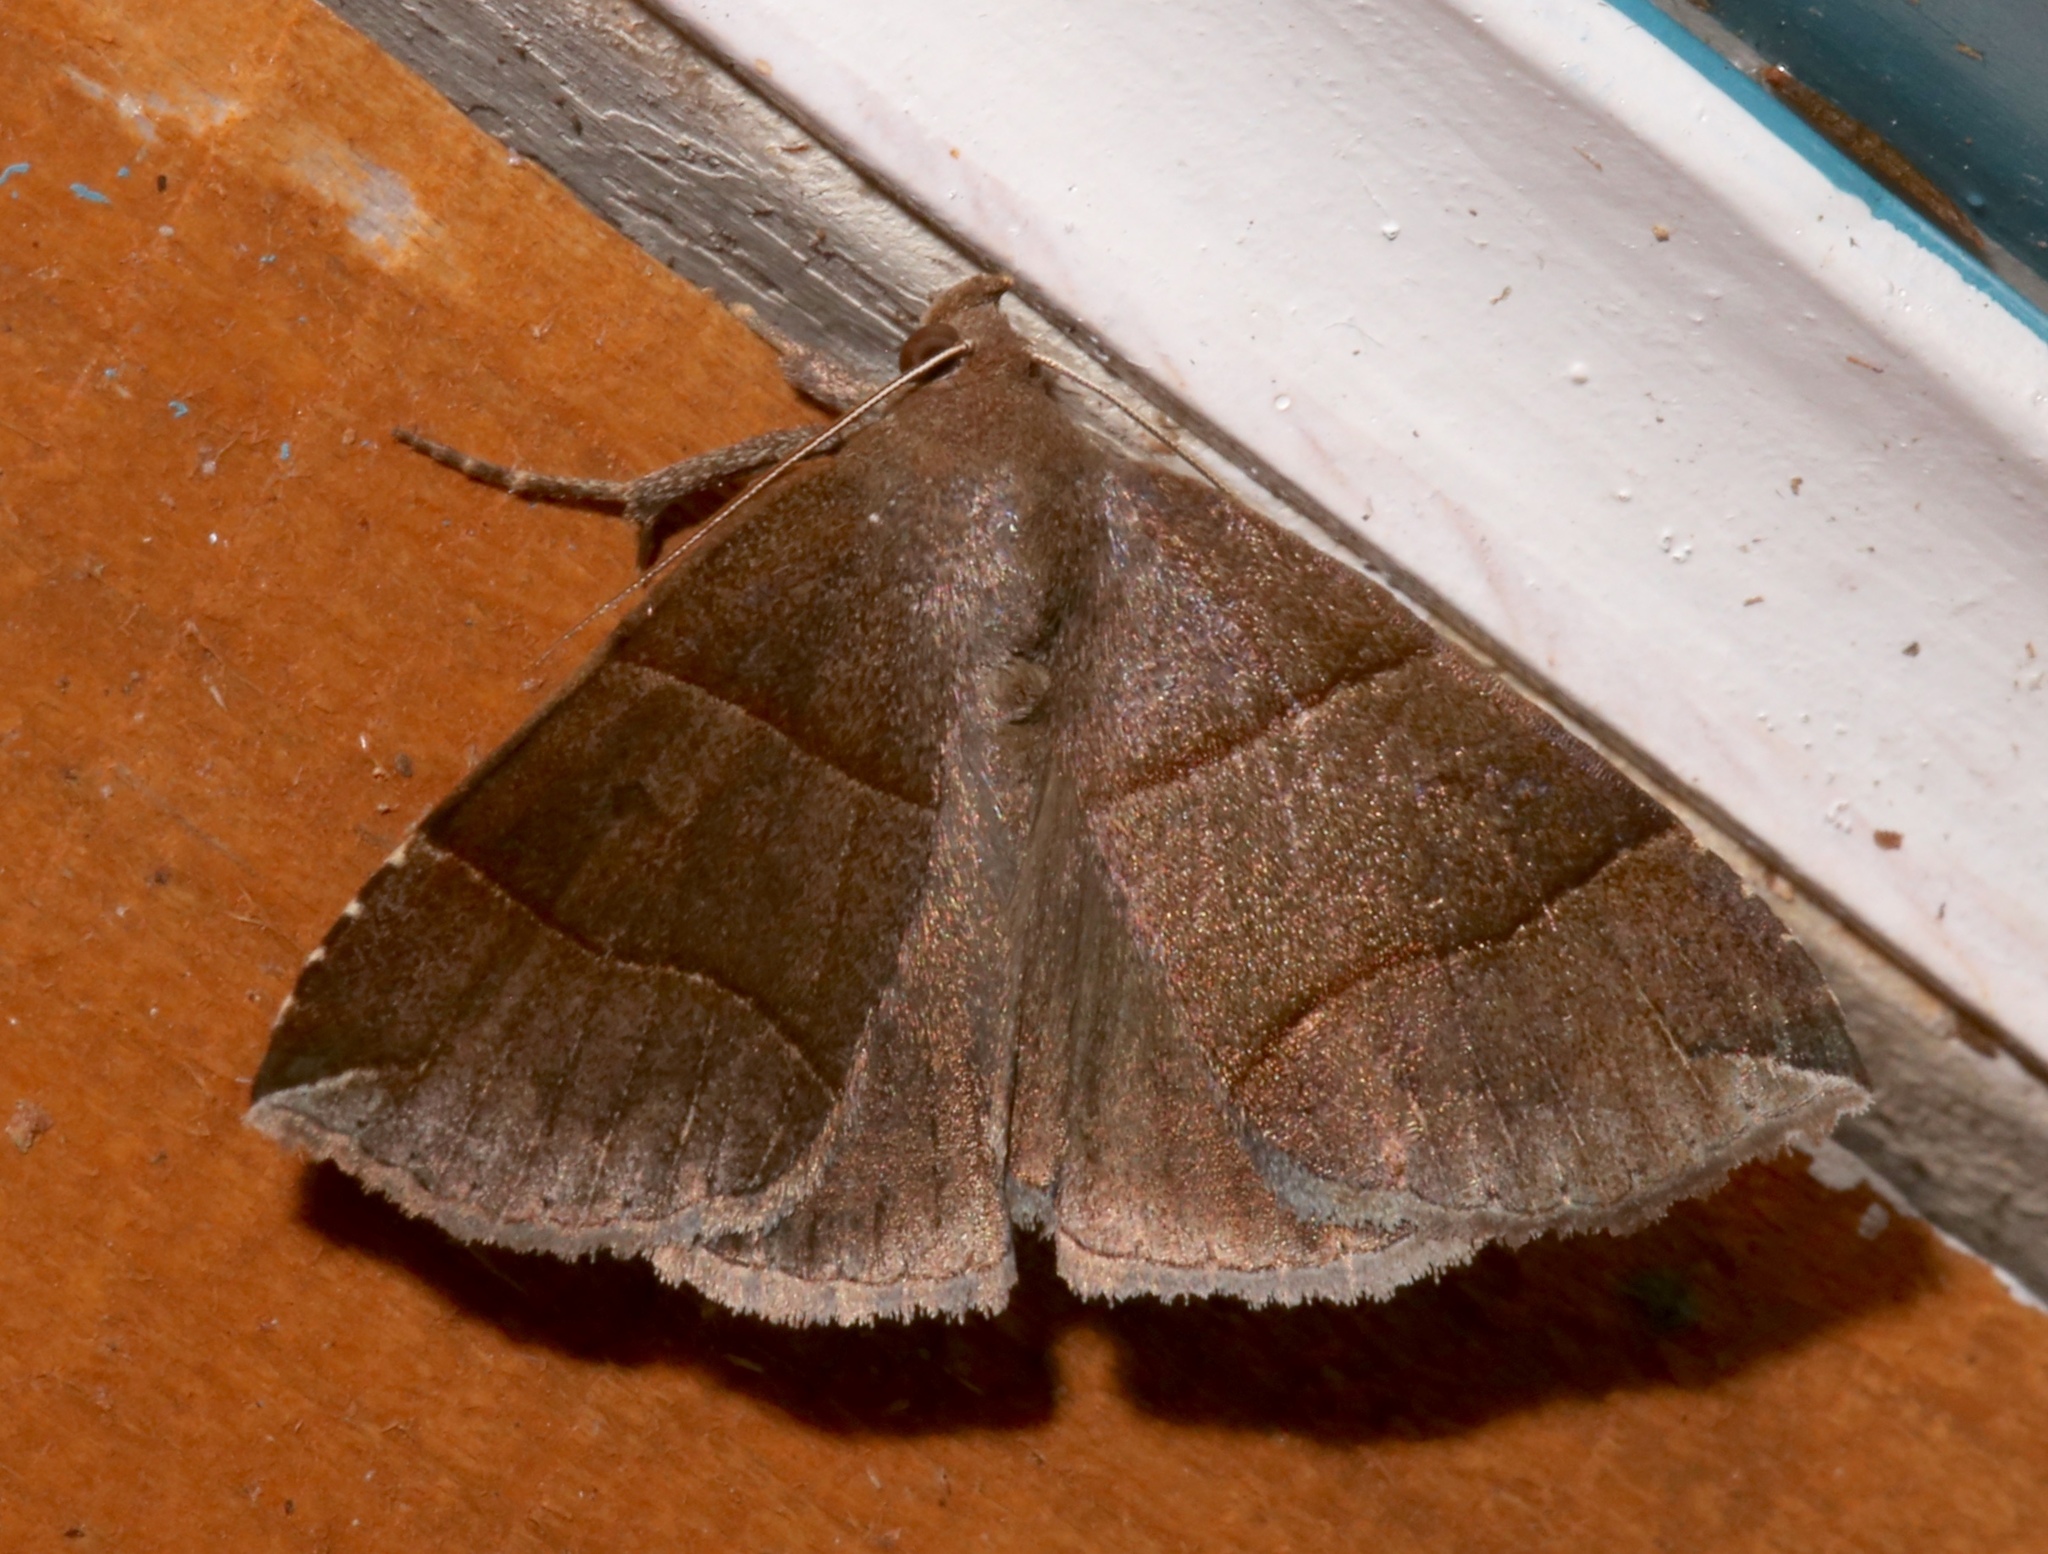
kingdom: Animalia
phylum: Arthropoda
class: Insecta
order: Lepidoptera
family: Erebidae
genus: Parallelia
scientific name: Parallelia bistriaris
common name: Maple looper moth
